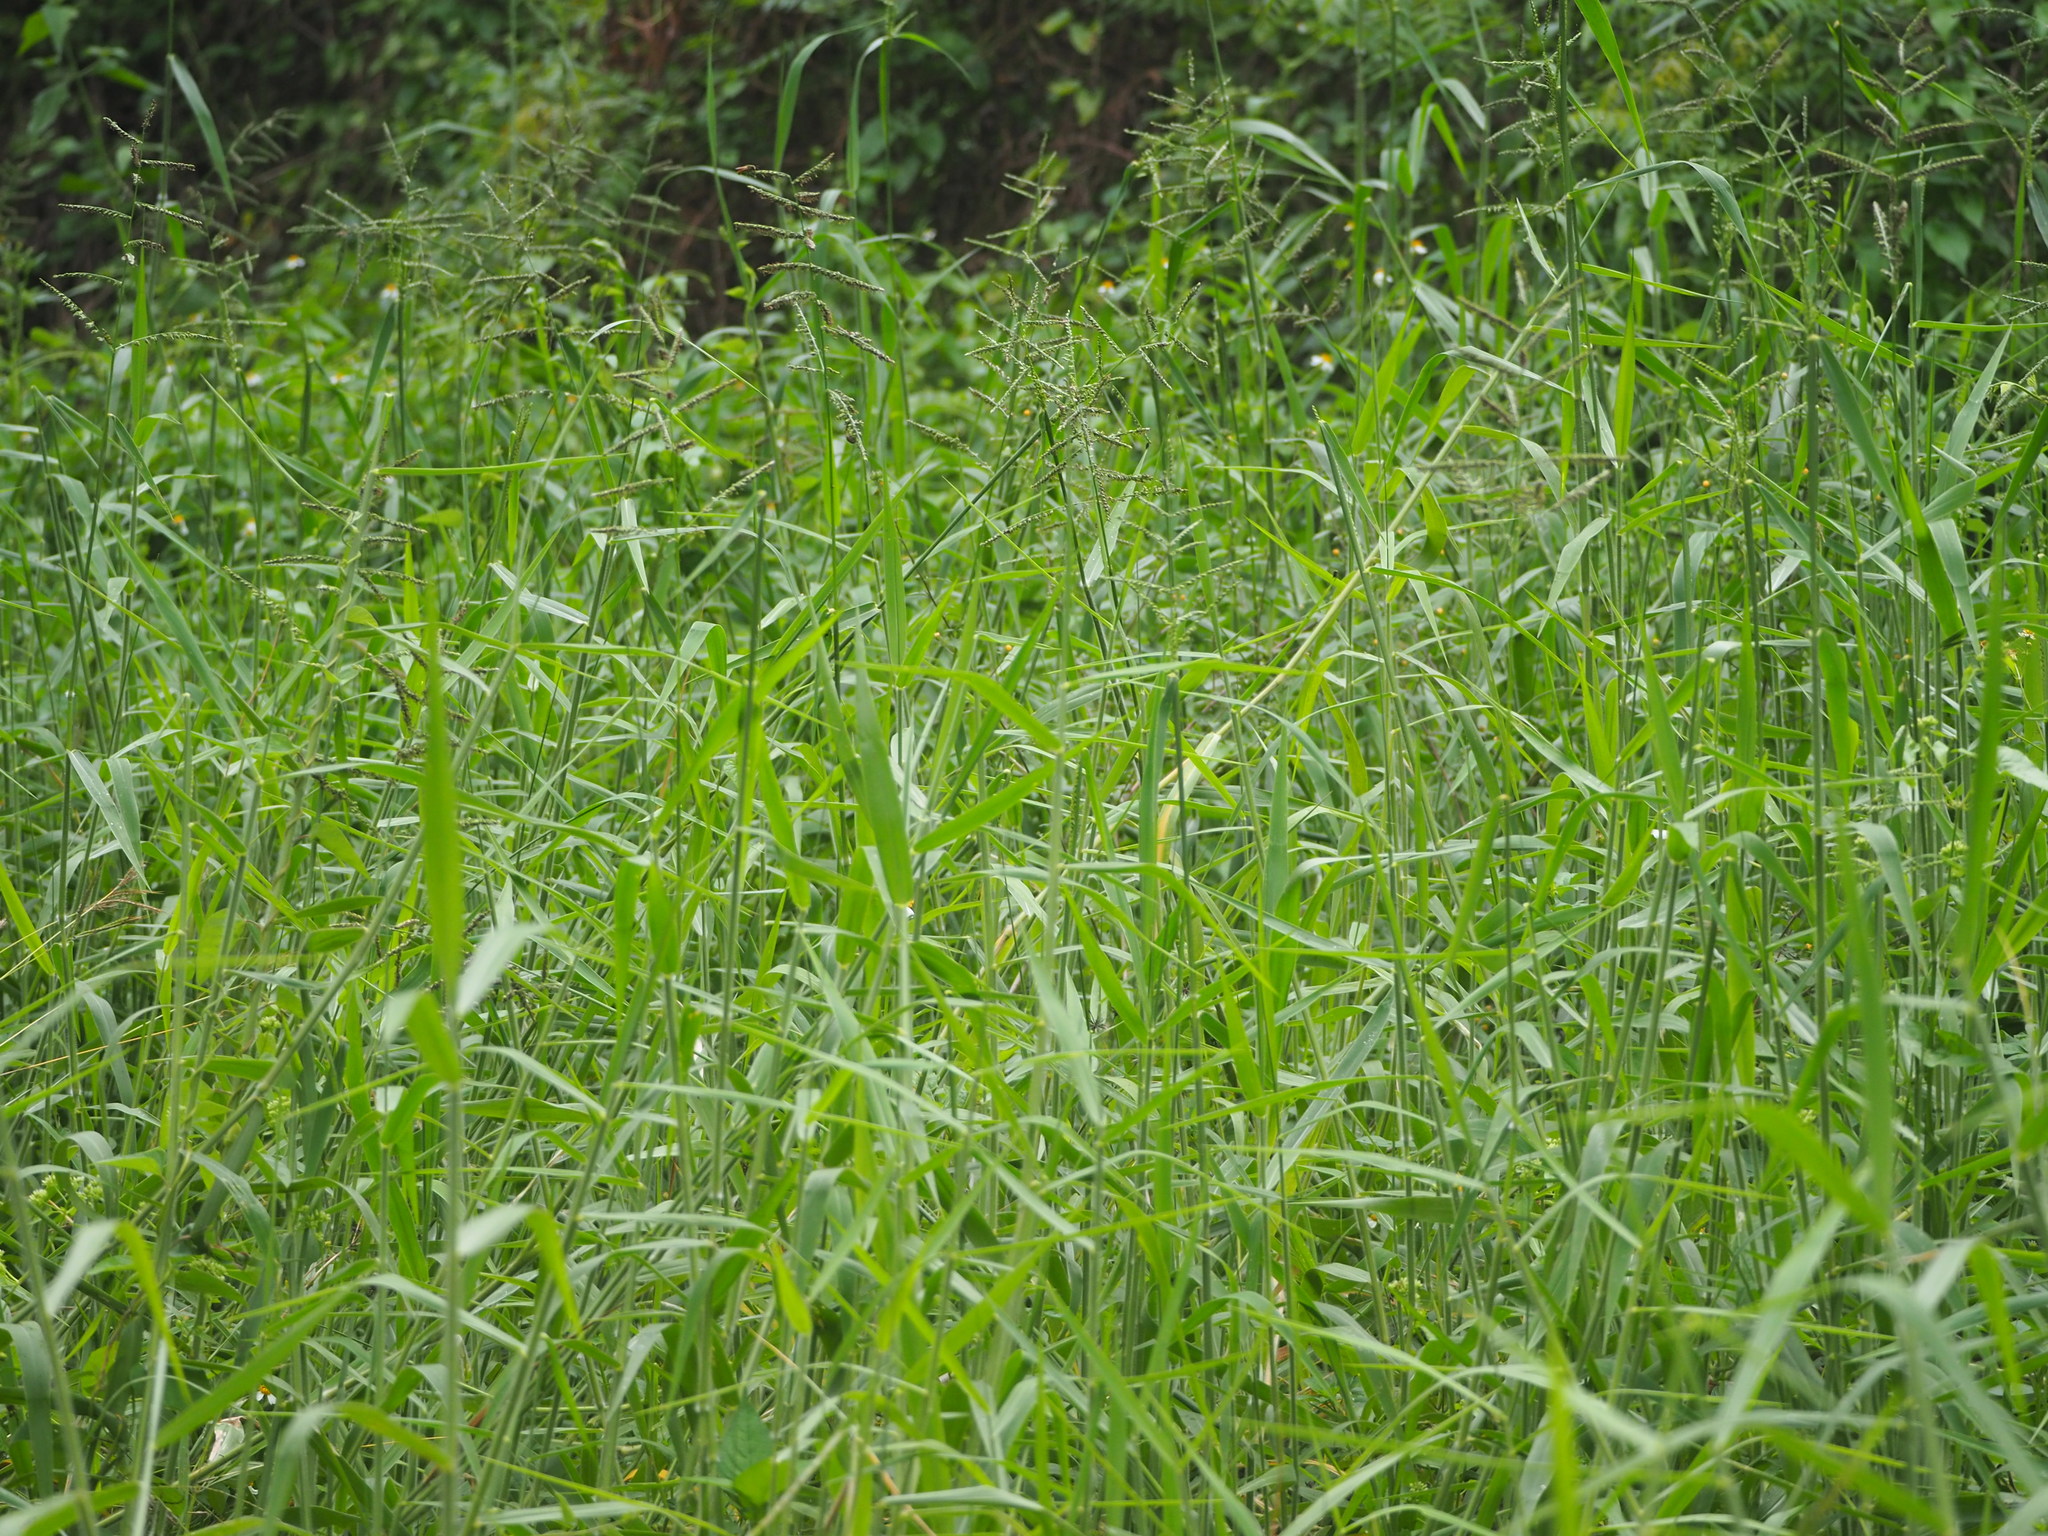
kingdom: Plantae
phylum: Tracheophyta
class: Liliopsida
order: Poales
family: Poaceae
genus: Urochloa
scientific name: Urochloa mutica
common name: Para grass
